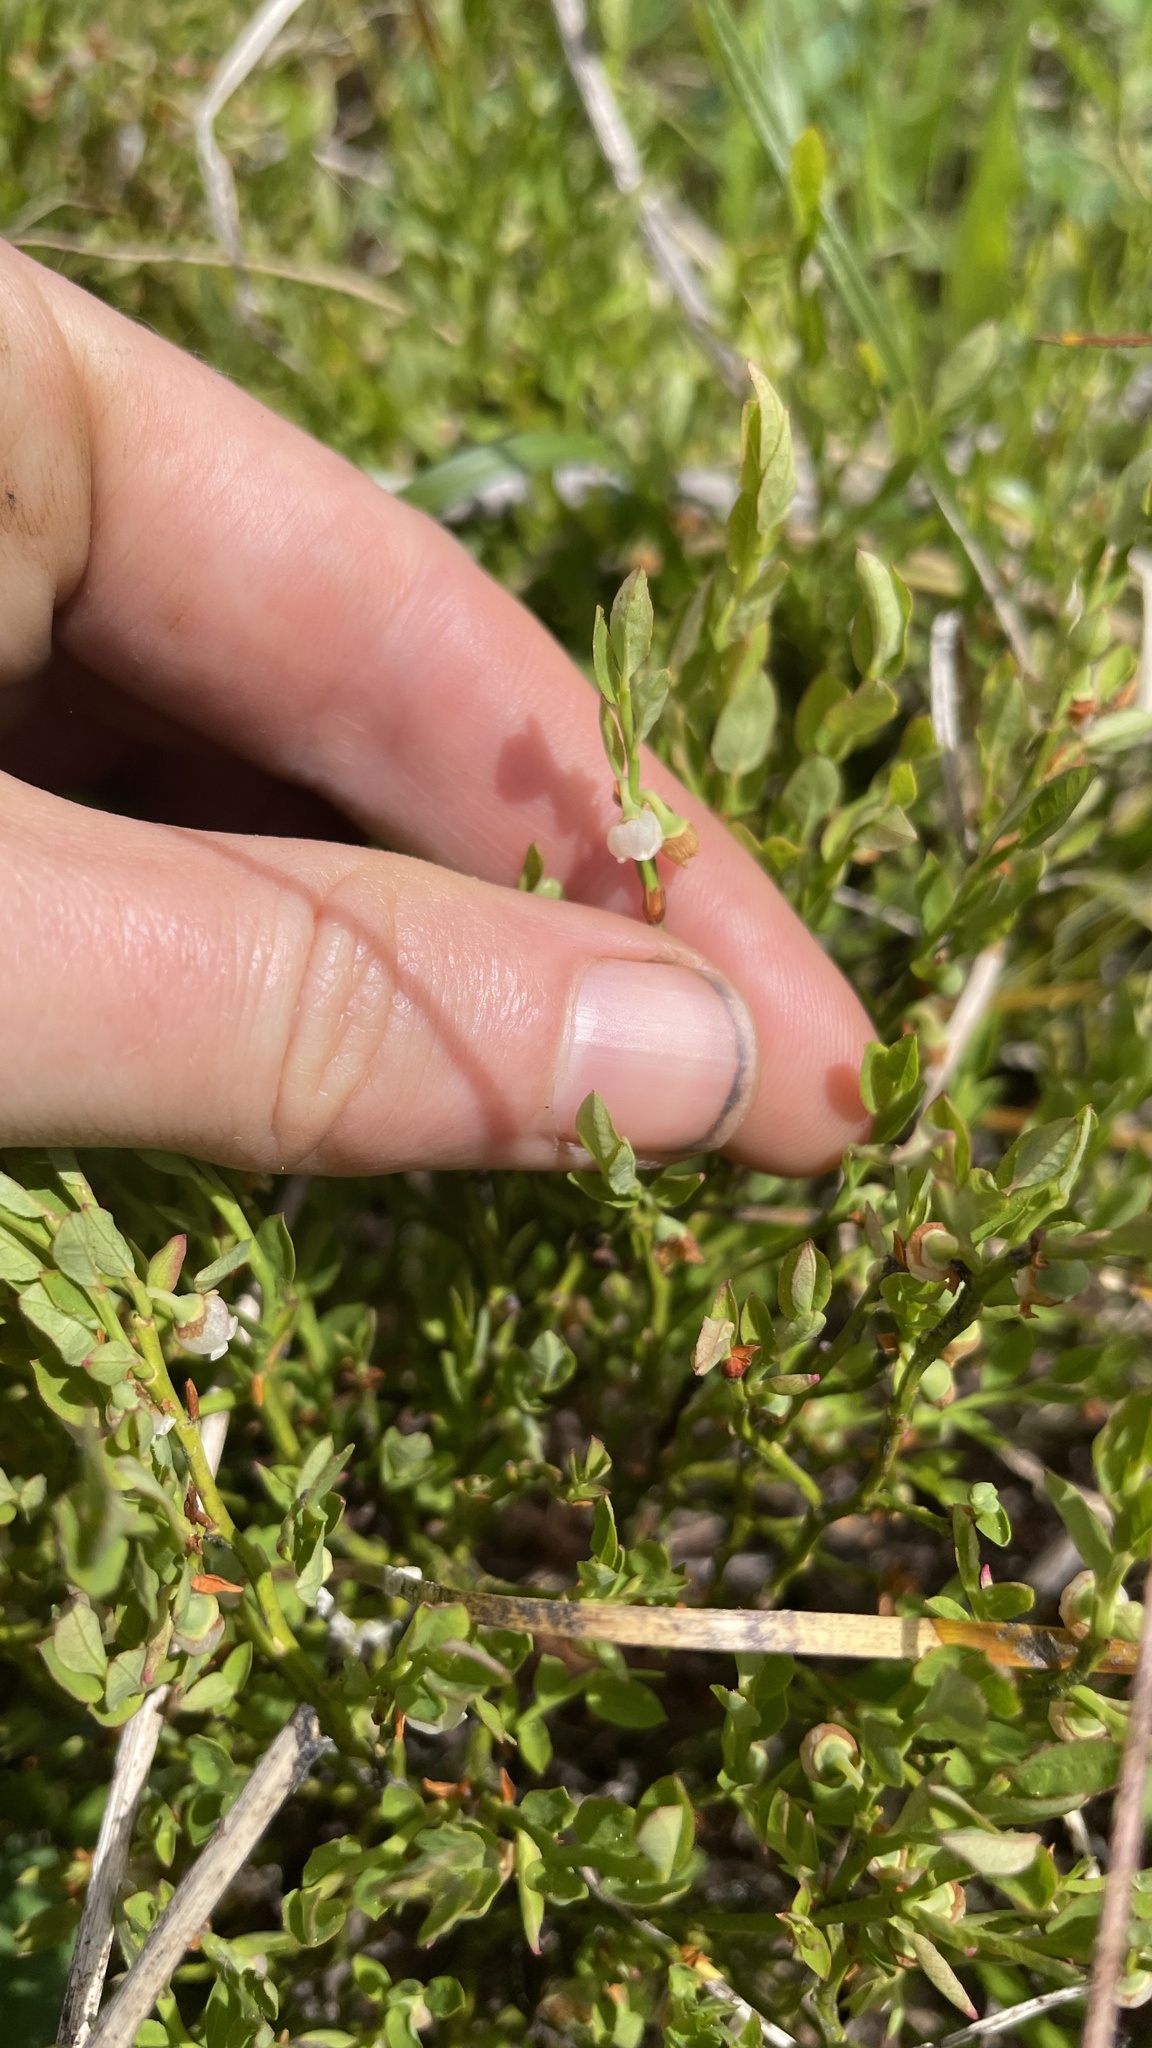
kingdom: Plantae
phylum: Tracheophyta
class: Magnoliopsida
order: Ericales
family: Ericaceae
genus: Vaccinium
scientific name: Vaccinium scoparium
